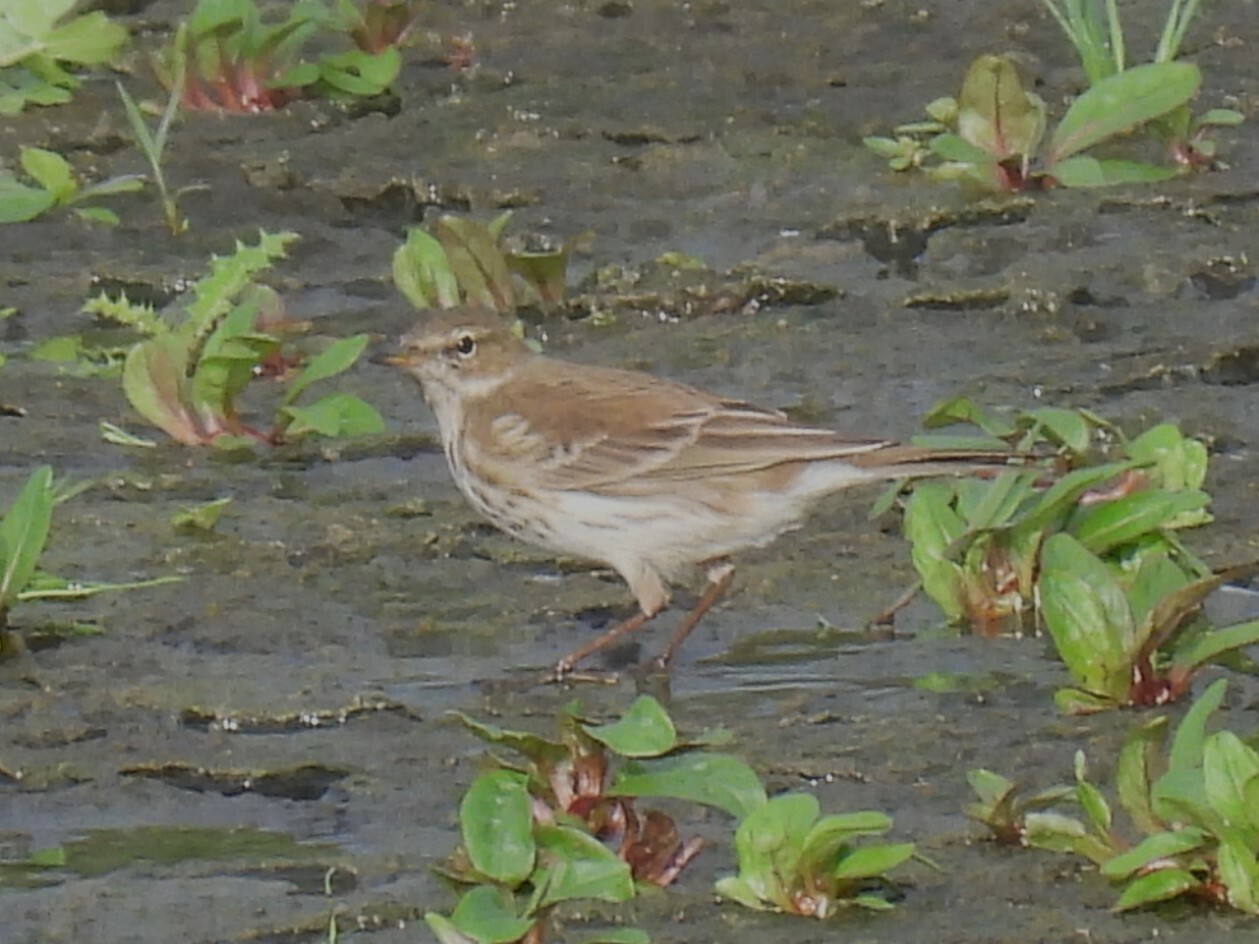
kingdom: Animalia
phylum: Chordata
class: Aves
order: Passeriformes
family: Motacillidae
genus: Anthus
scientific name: Anthus spinoletta
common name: Water pipit
